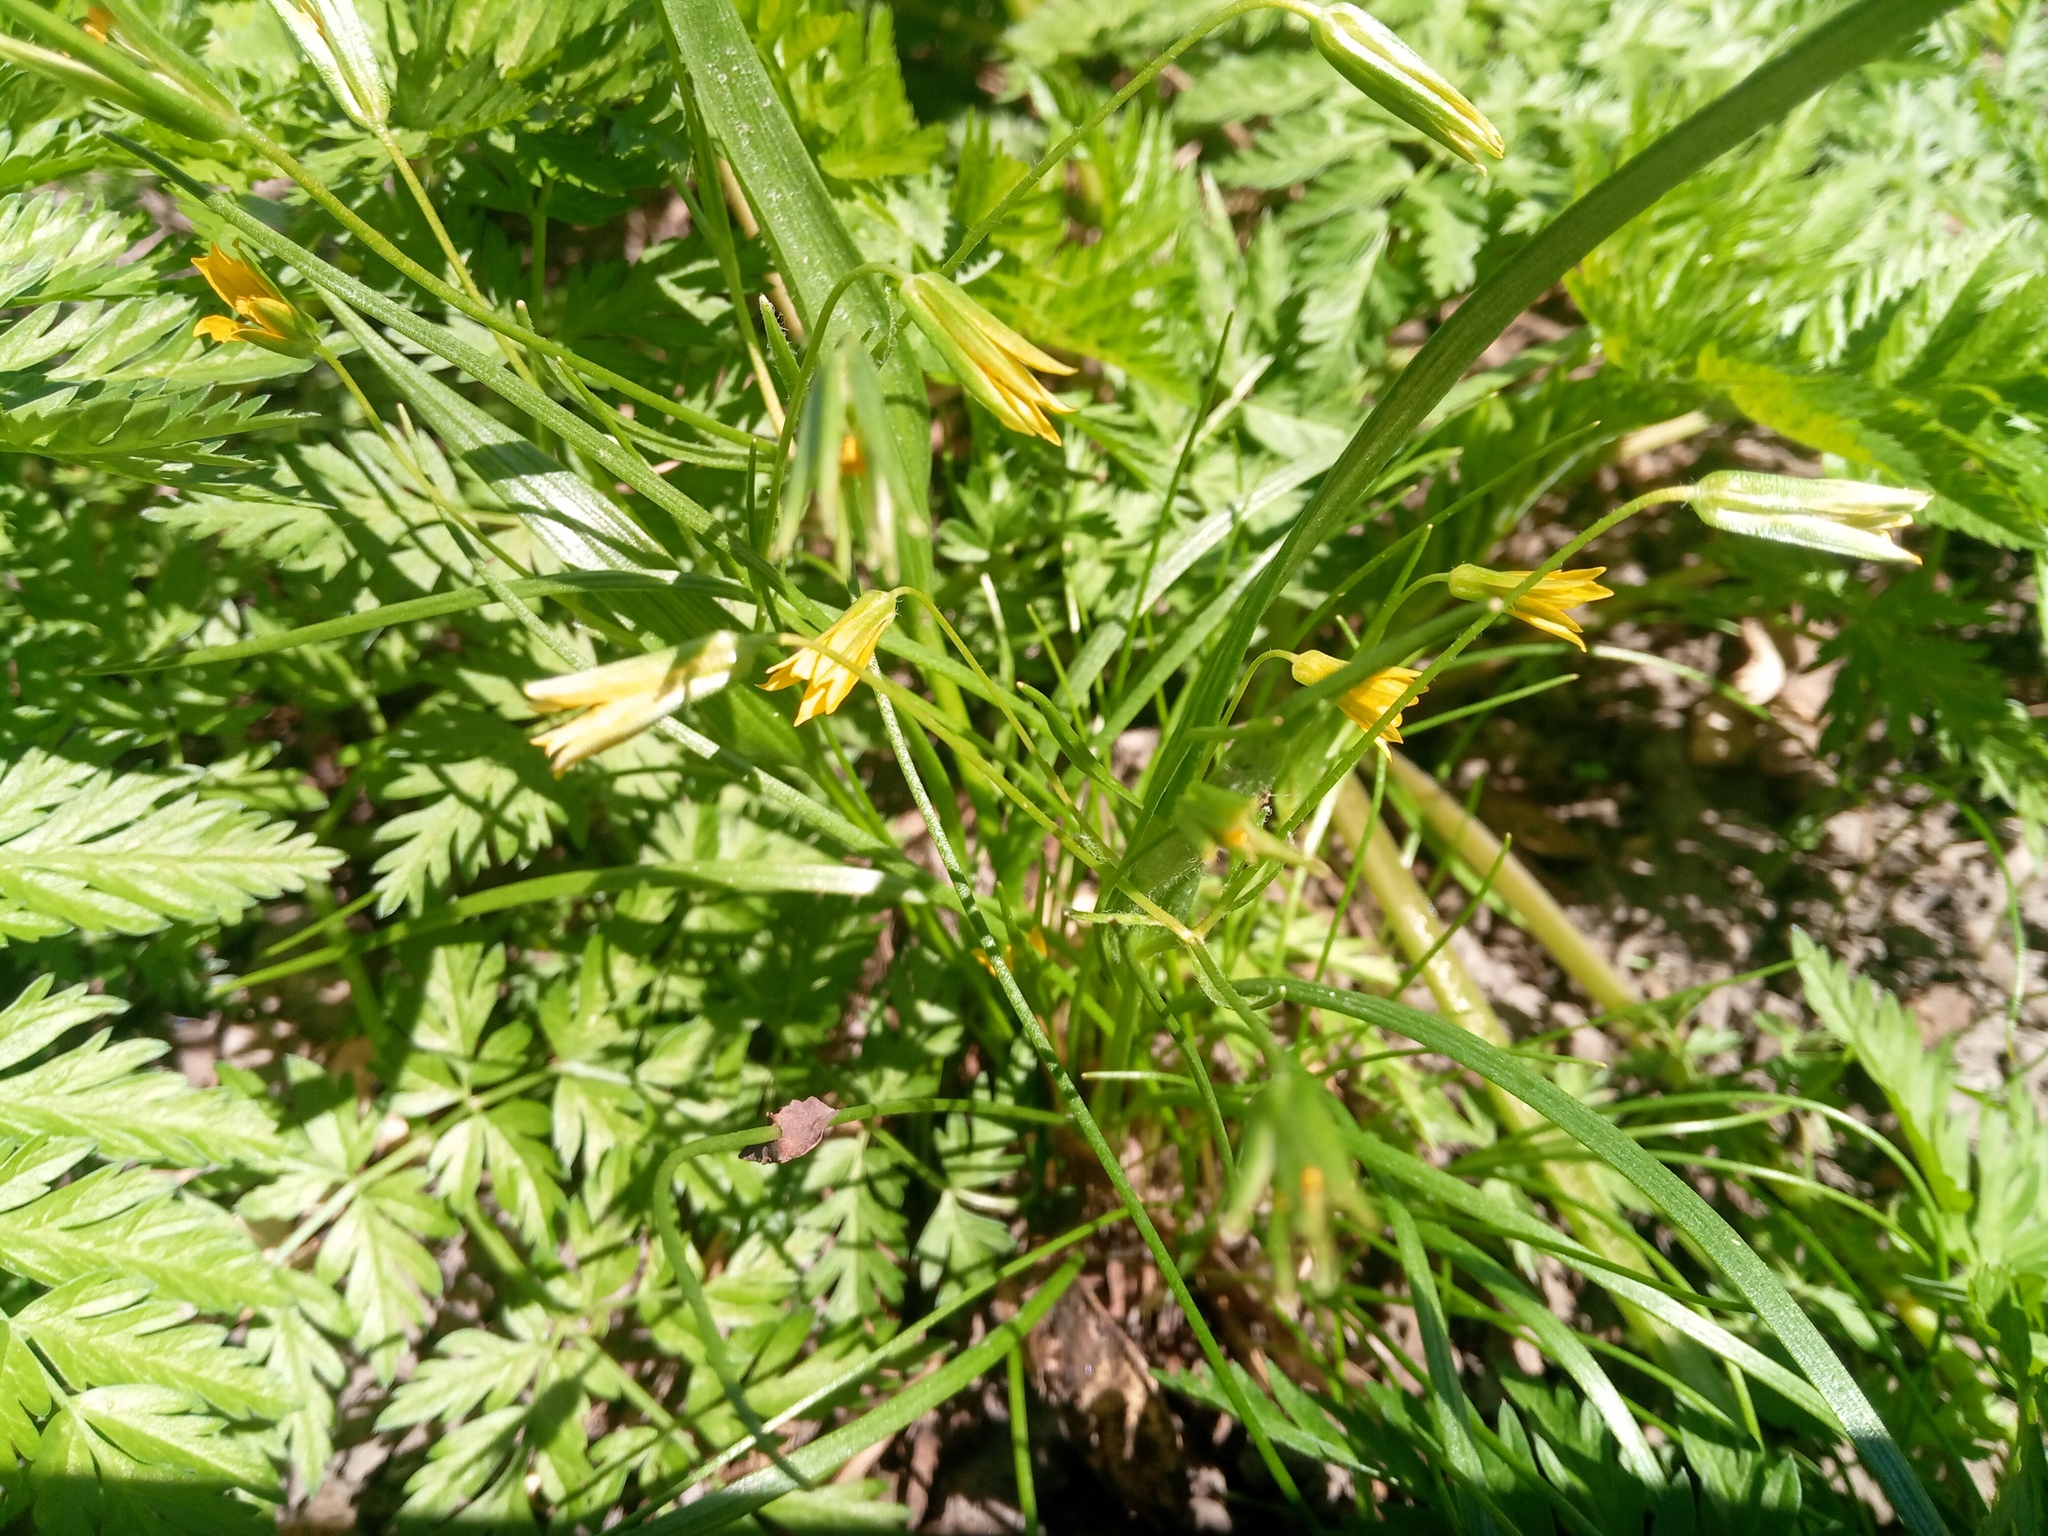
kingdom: Plantae
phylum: Tracheophyta
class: Liliopsida
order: Liliales
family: Liliaceae
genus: Gagea
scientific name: Gagea minima
